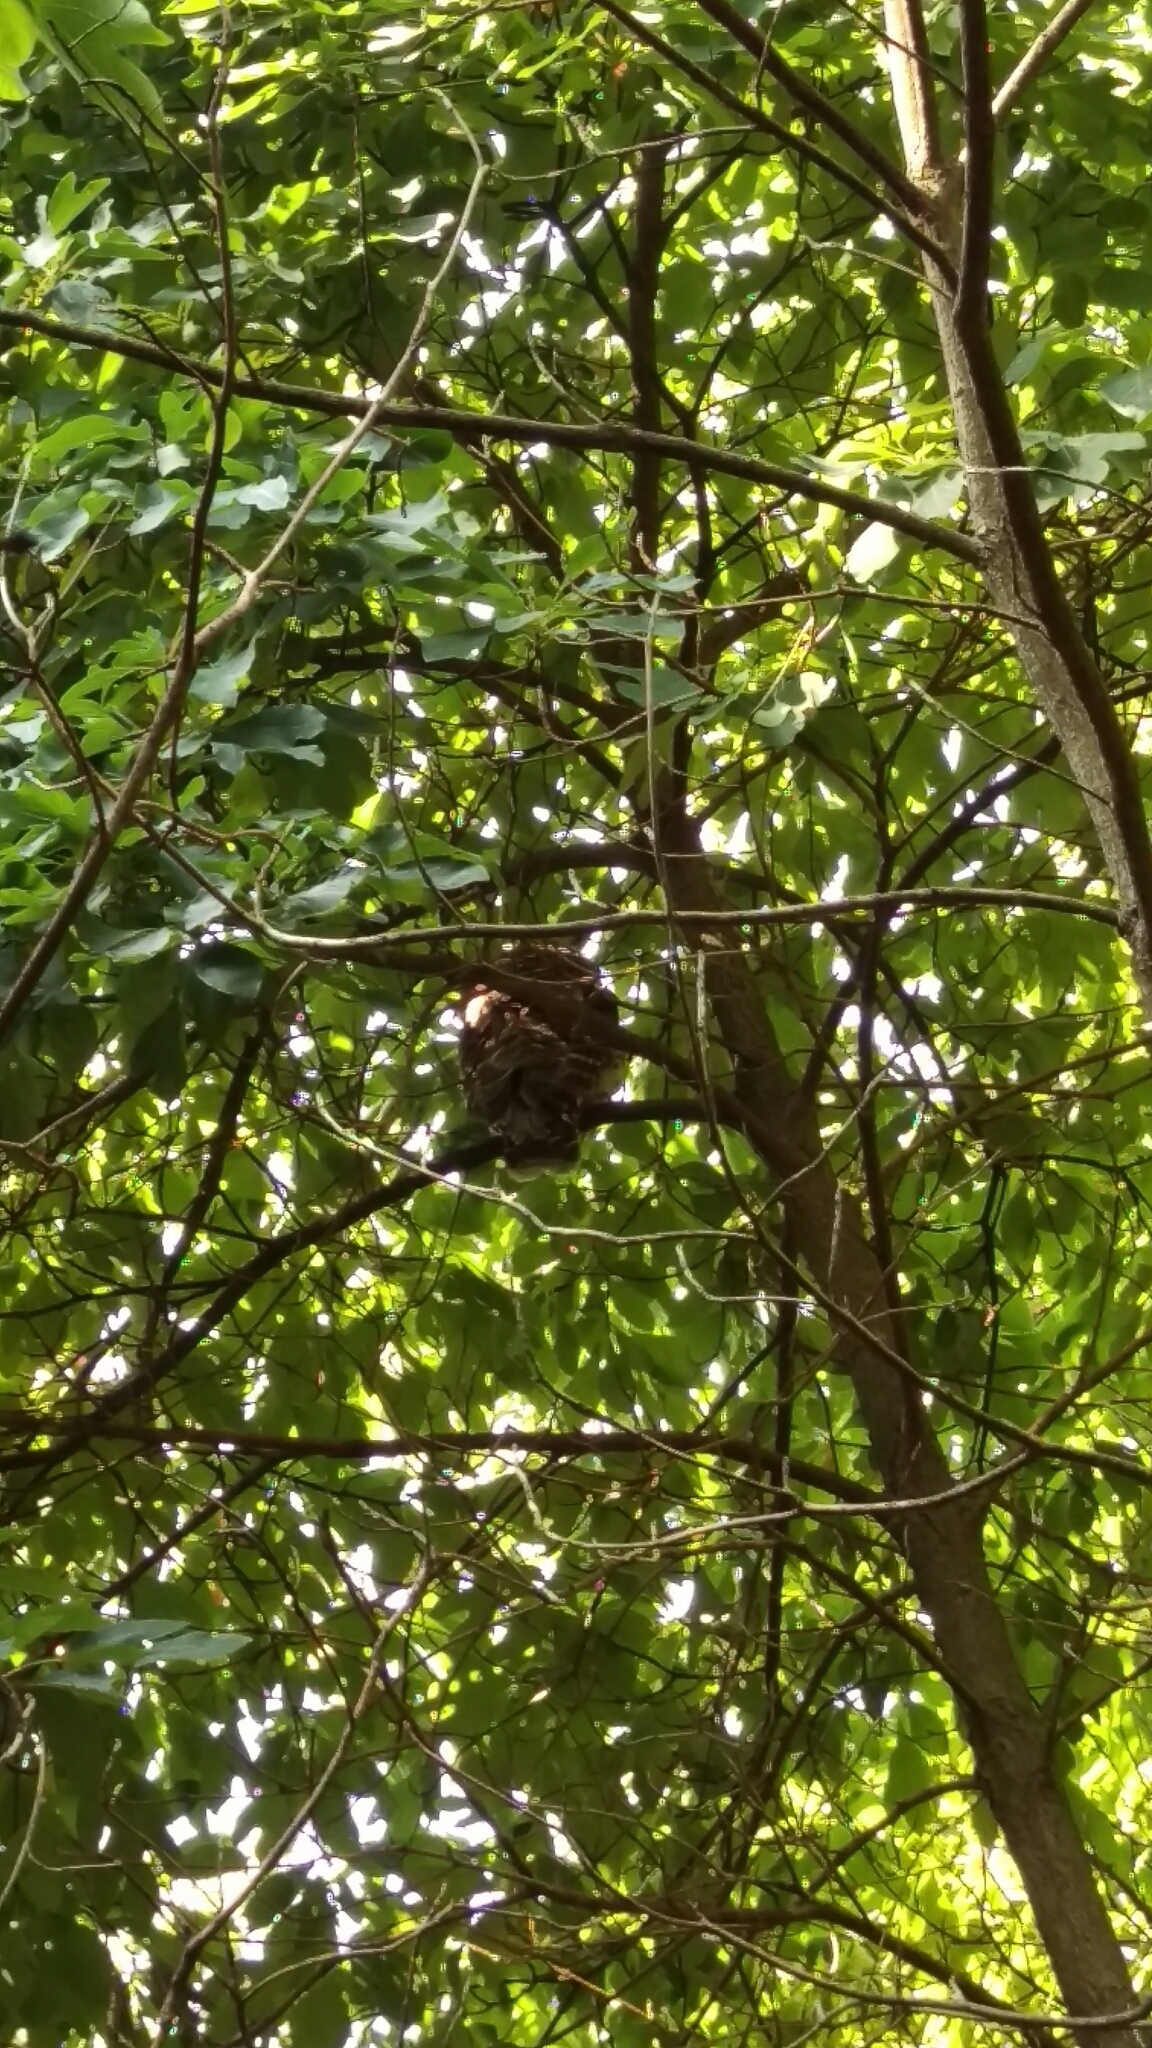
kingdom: Animalia
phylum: Chordata
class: Aves
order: Strigiformes
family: Strigidae
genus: Strix
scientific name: Strix varia
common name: Barred owl
